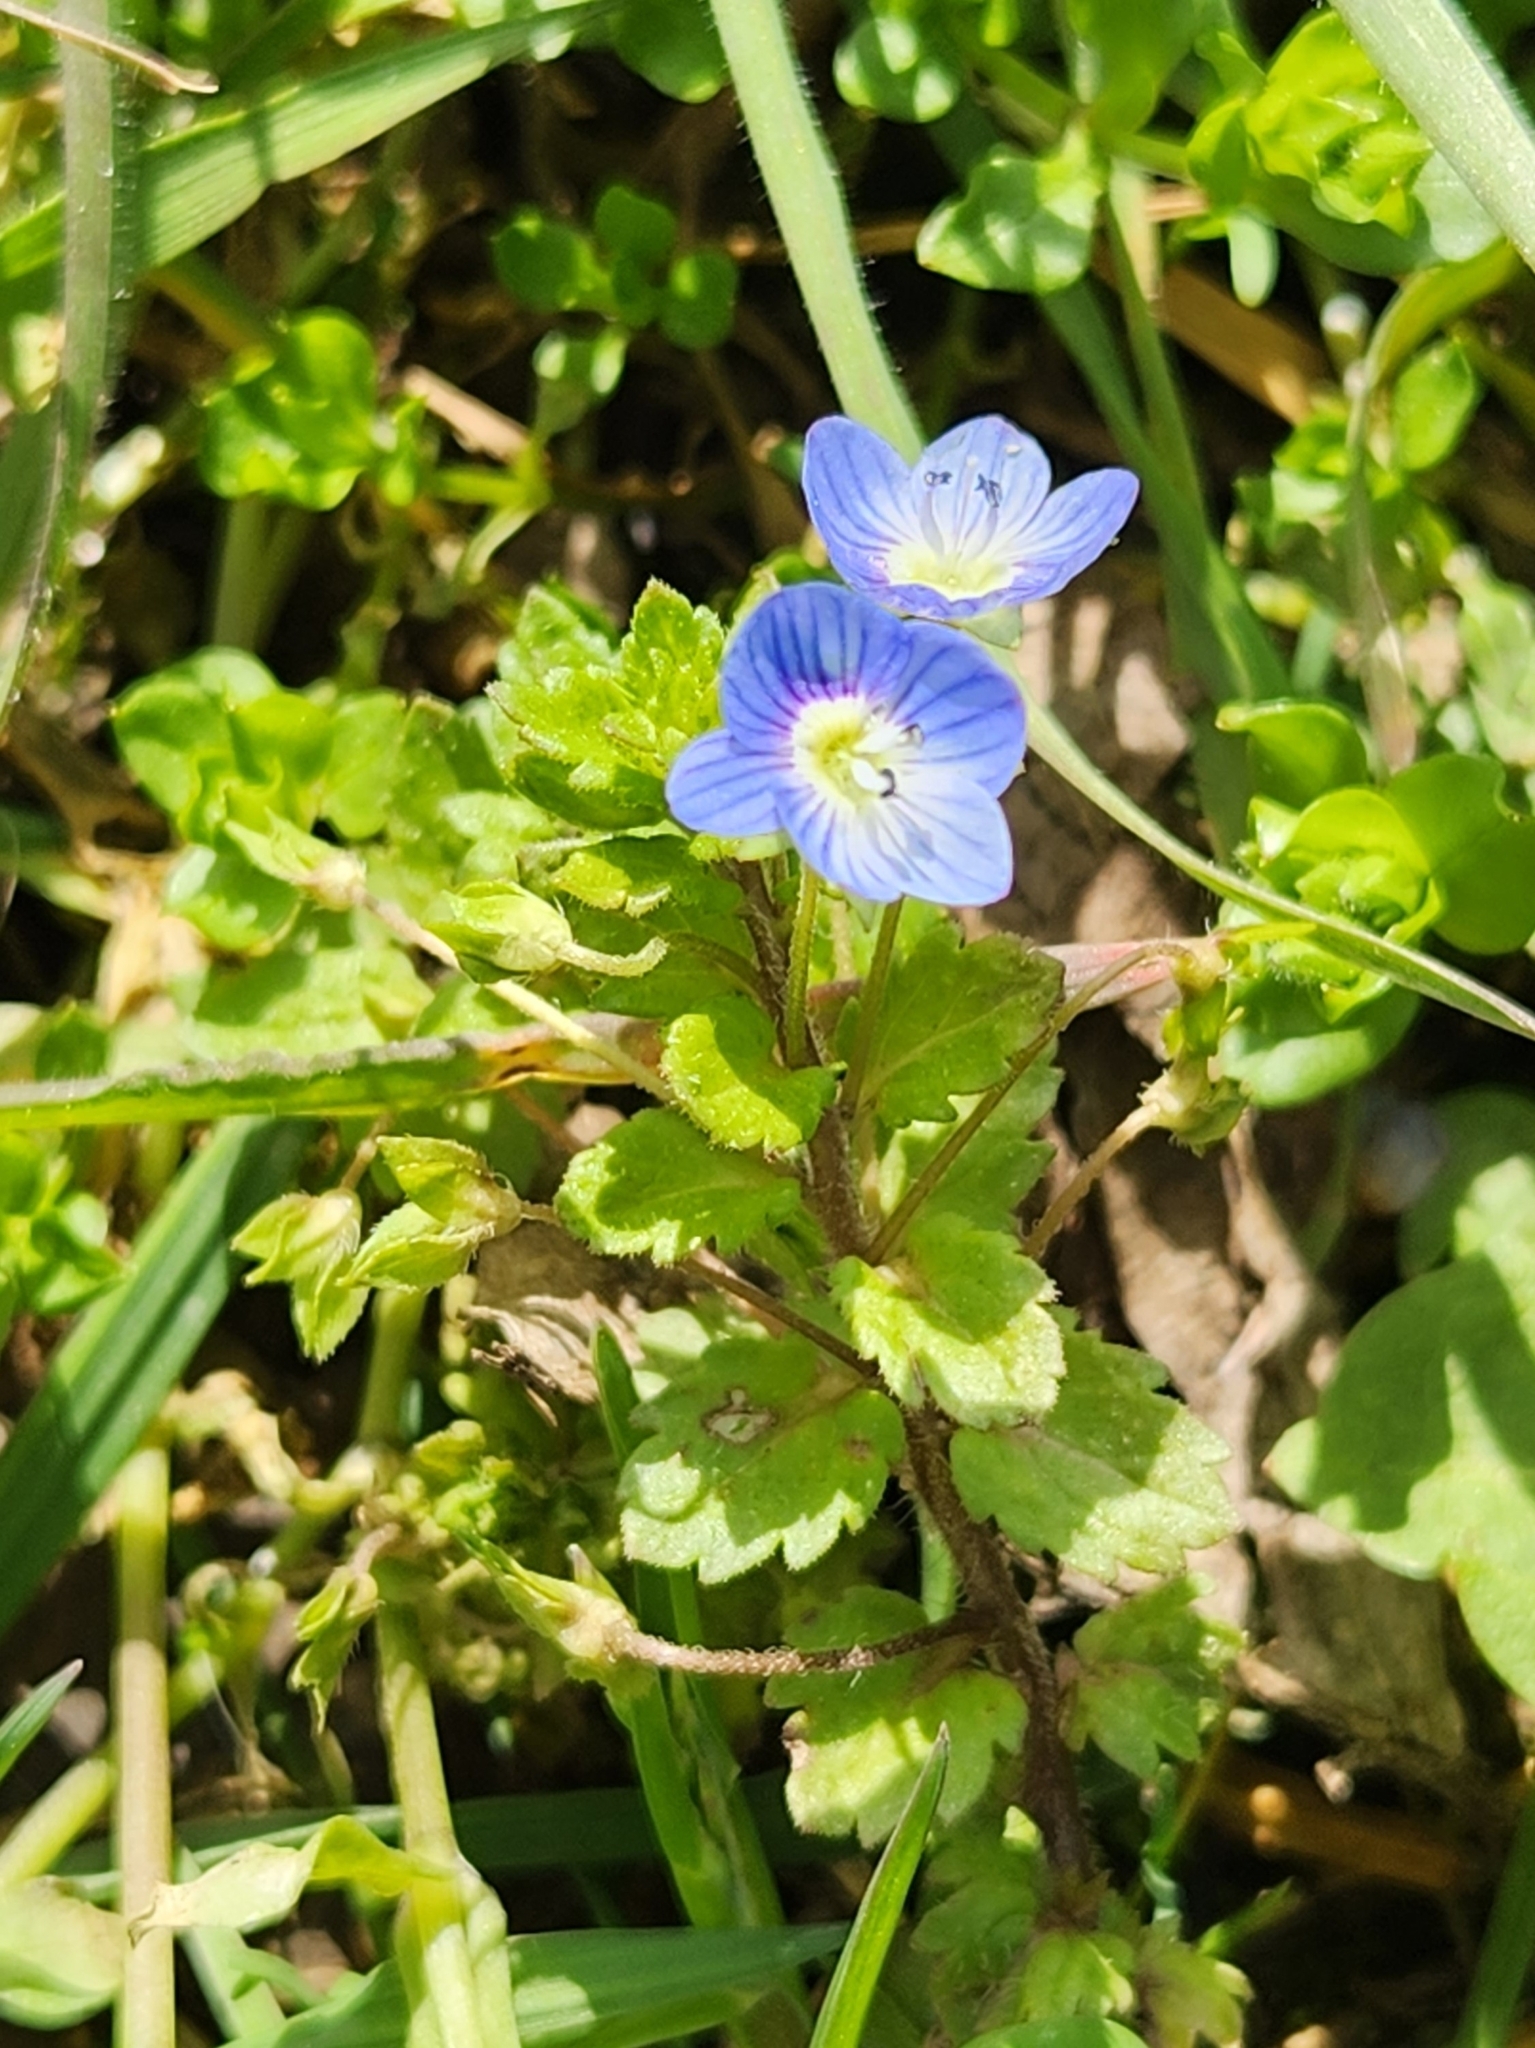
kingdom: Plantae
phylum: Tracheophyta
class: Magnoliopsida
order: Lamiales
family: Plantaginaceae
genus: Veronica
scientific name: Veronica persica
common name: Common field-speedwell
